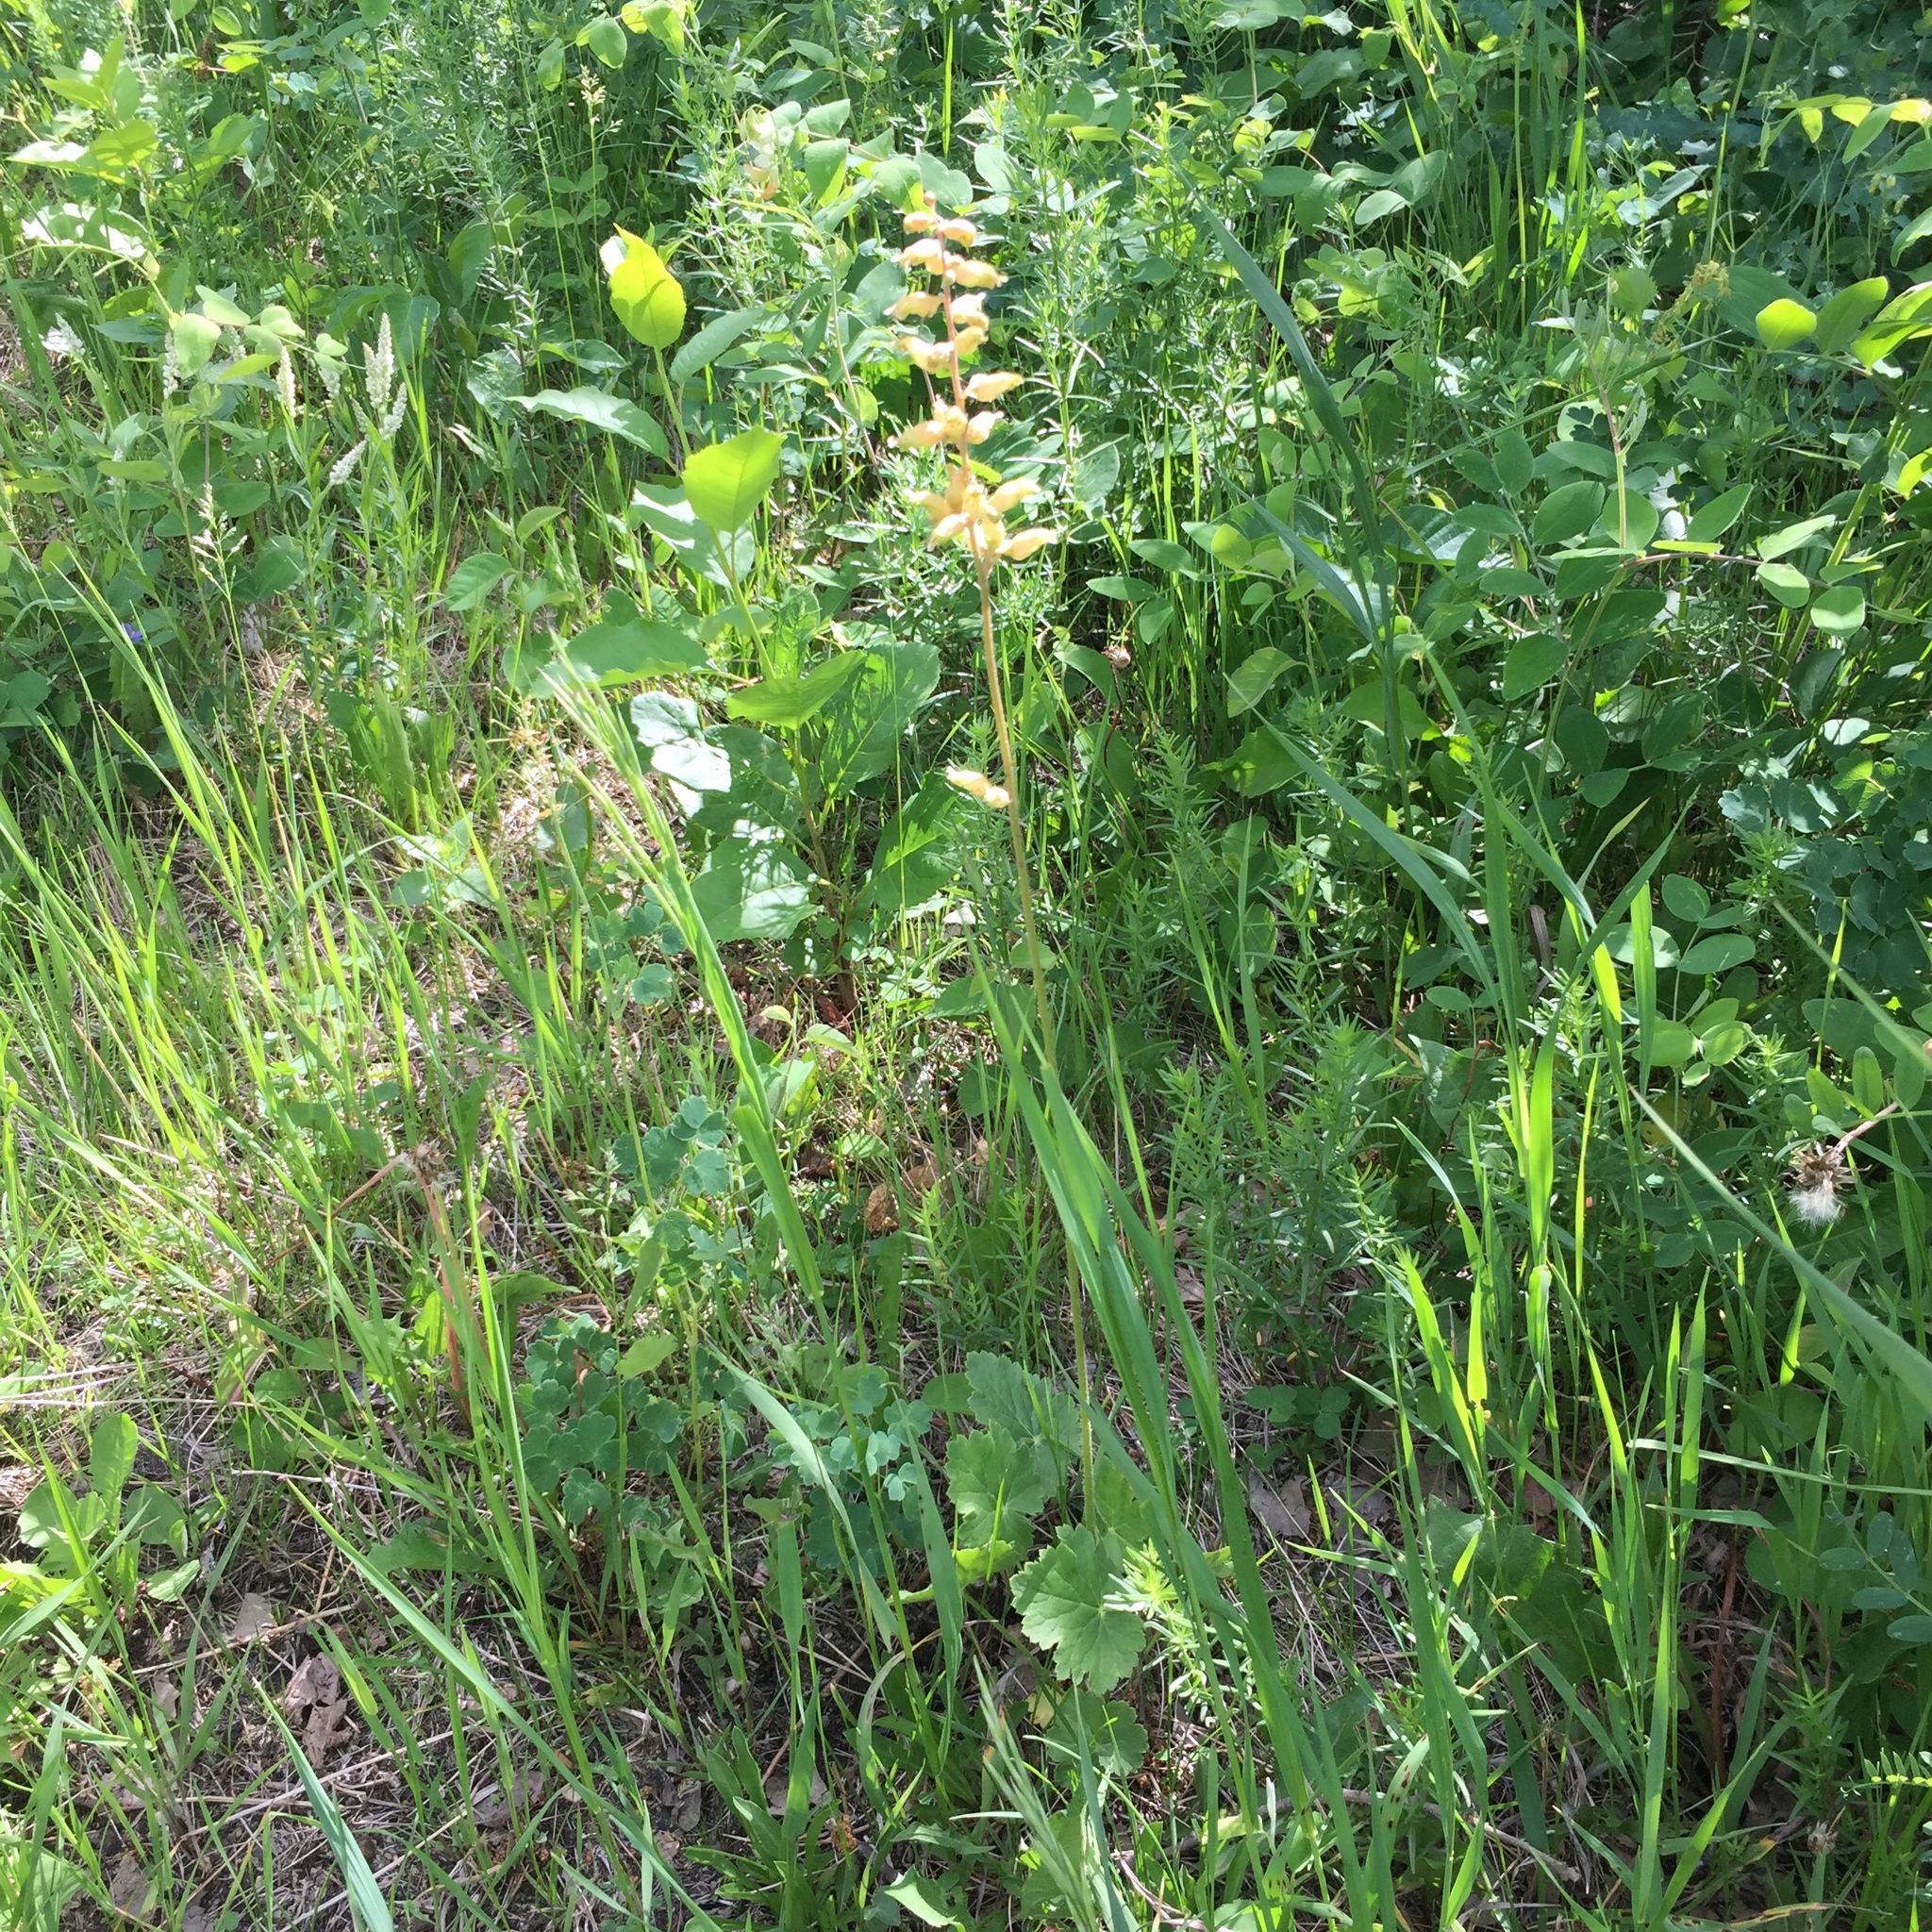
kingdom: Plantae
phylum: Tracheophyta
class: Magnoliopsida
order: Saxifragales
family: Saxifragaceae
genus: Heuchera
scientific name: Heuchera richardsonii
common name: Richardson's alumroot
